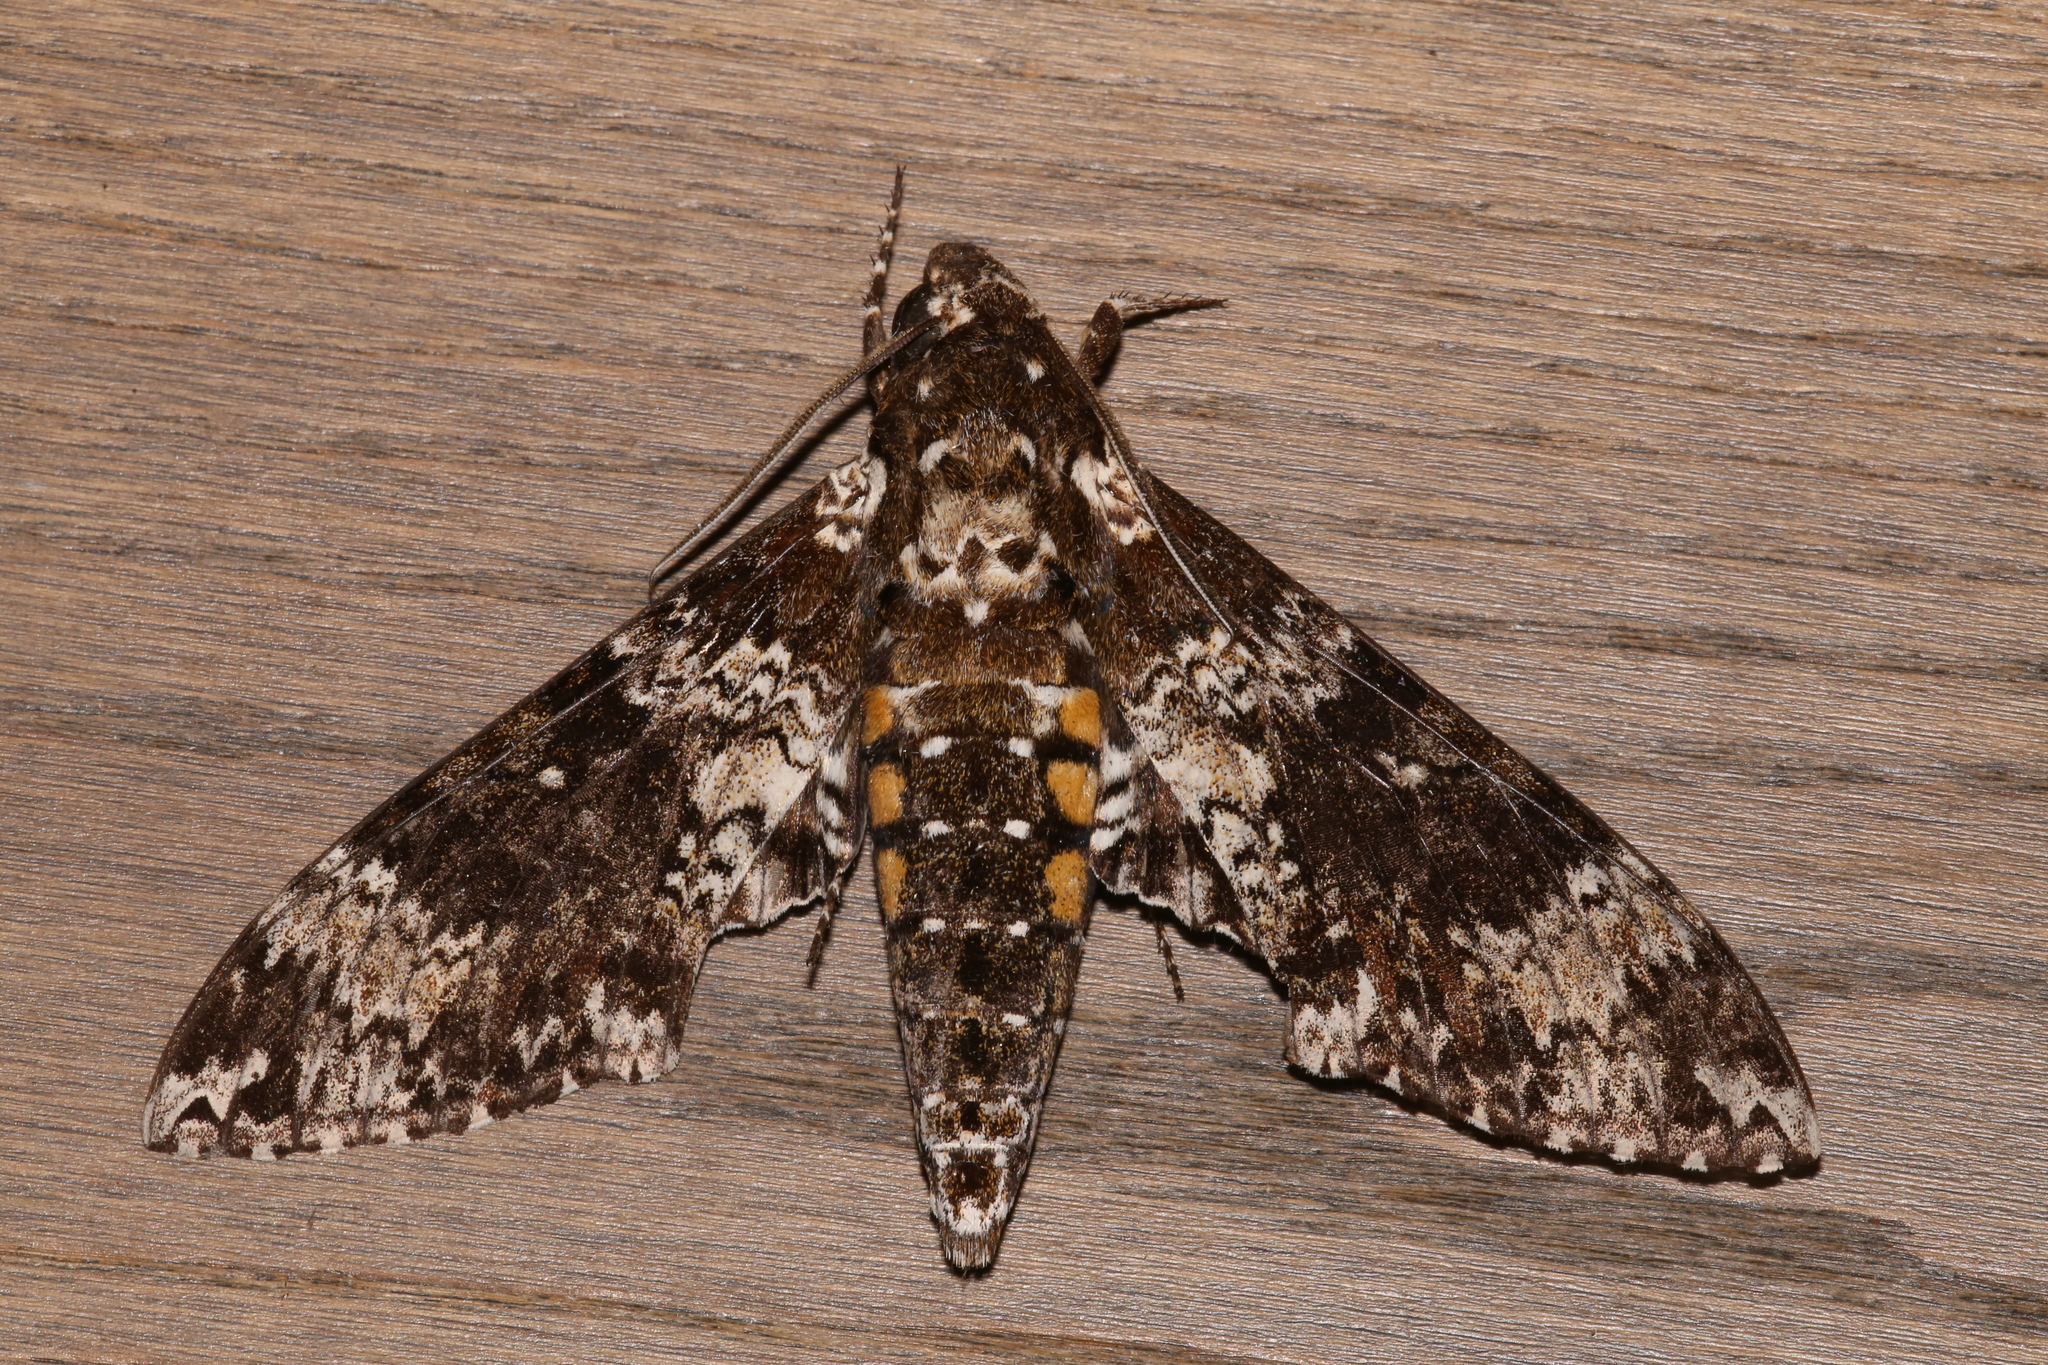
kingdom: Animalia
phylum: Arthropoda
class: Insecta
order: Lepidoptera
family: Sphingidae
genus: Manduca
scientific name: Manduca rustica
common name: Rustic sphinx
